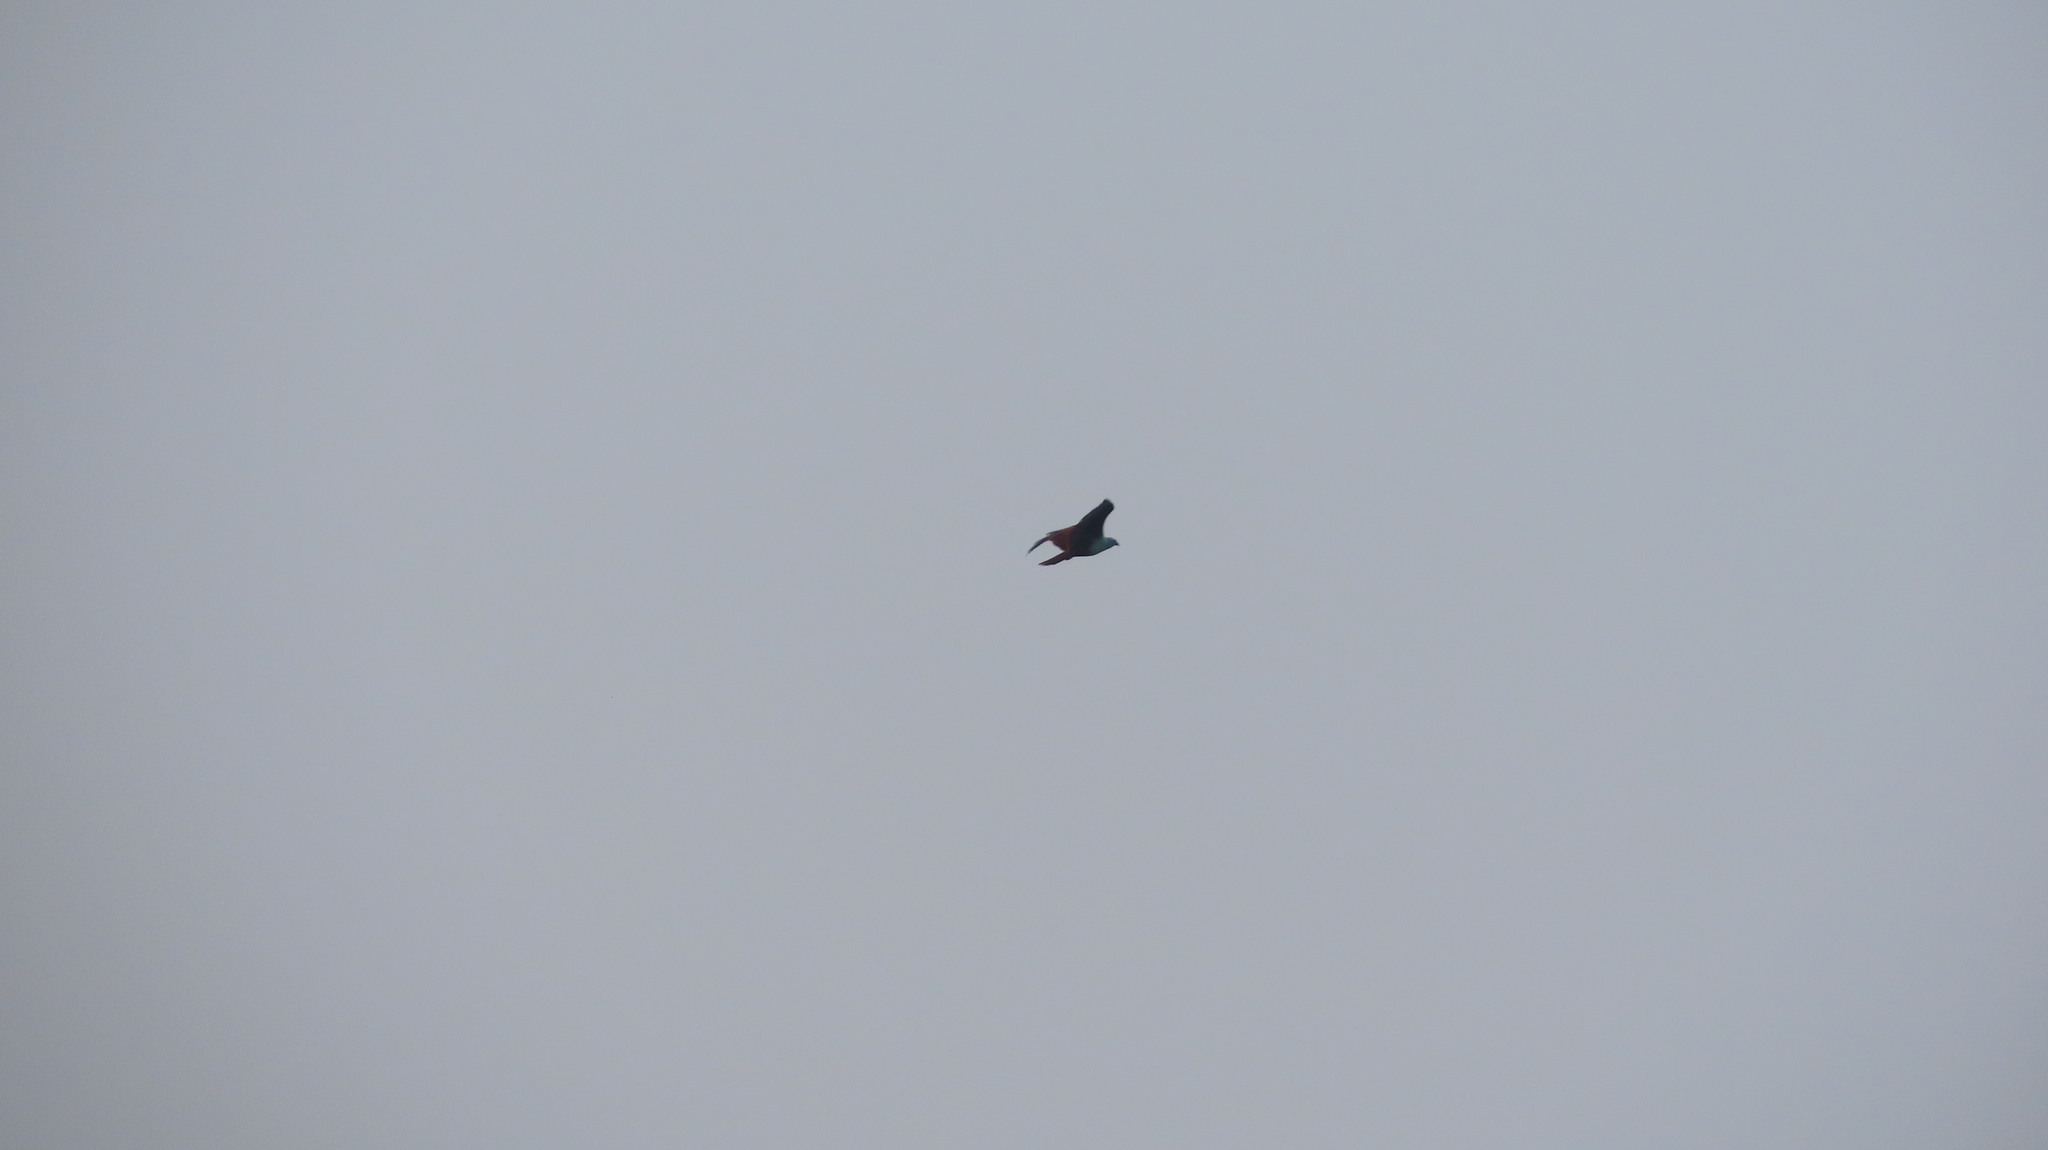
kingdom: Animalia
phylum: Chordata
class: Aves
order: Accipitriformes
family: Accipitridae
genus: Haliastur
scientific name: Haliastur indus
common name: Brahminy kite
